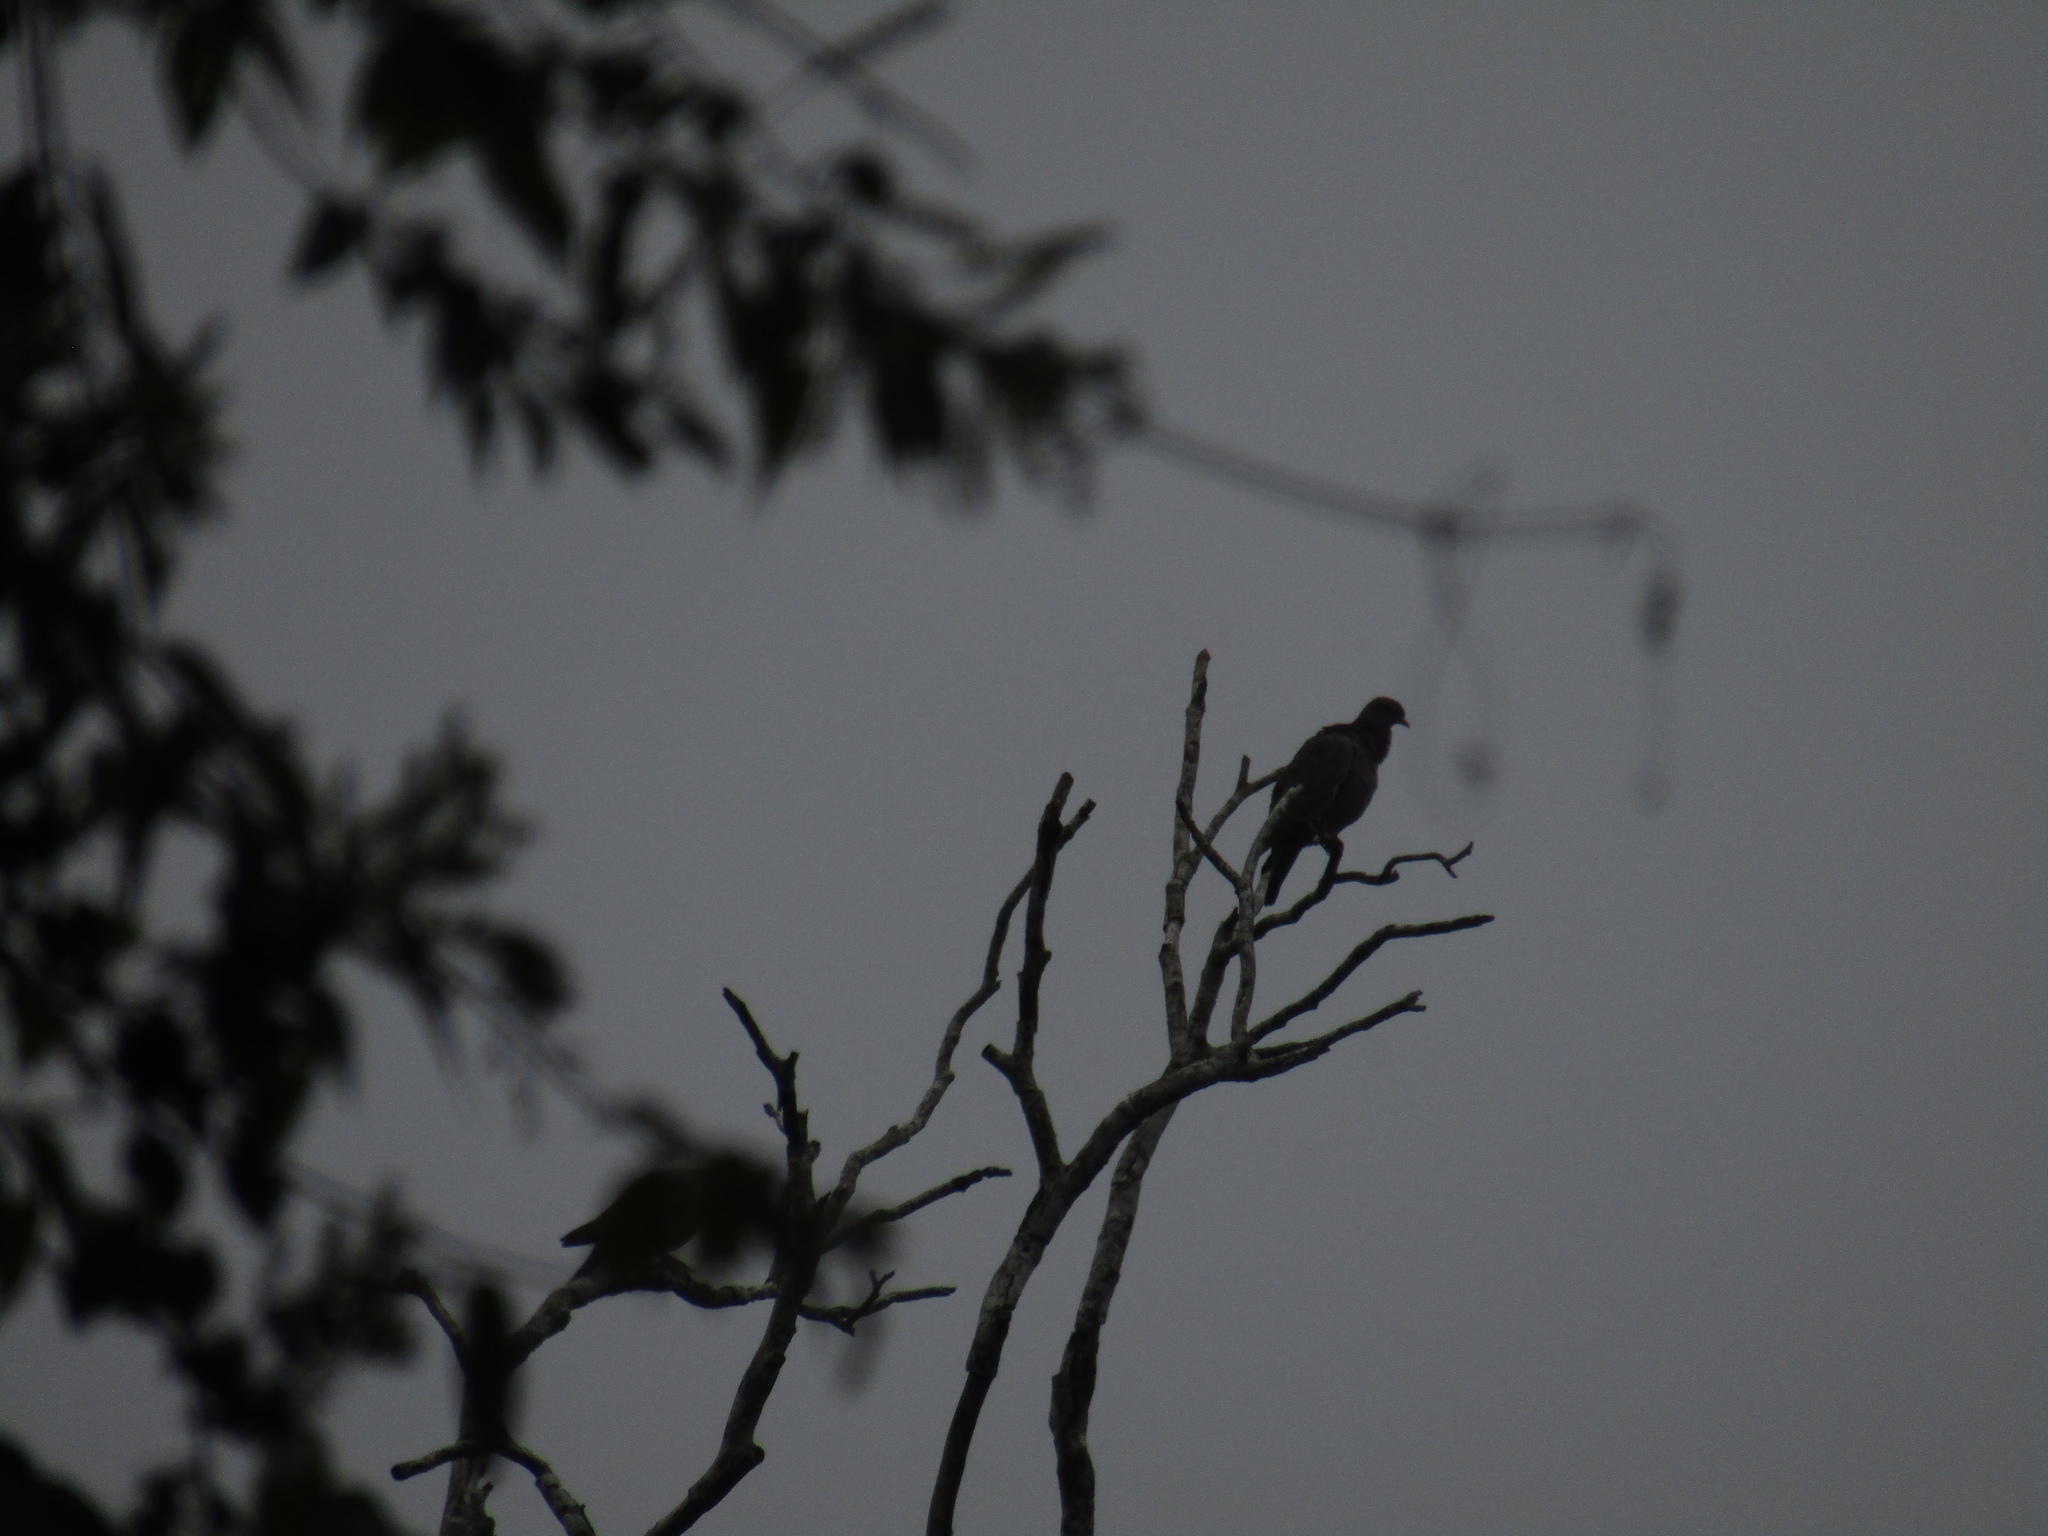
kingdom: Animalia
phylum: Chordata
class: Aves
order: Columbiformes
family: Columbidae
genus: Patagioenas
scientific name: Patagioenas picazuro
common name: Picazuro pigeon
